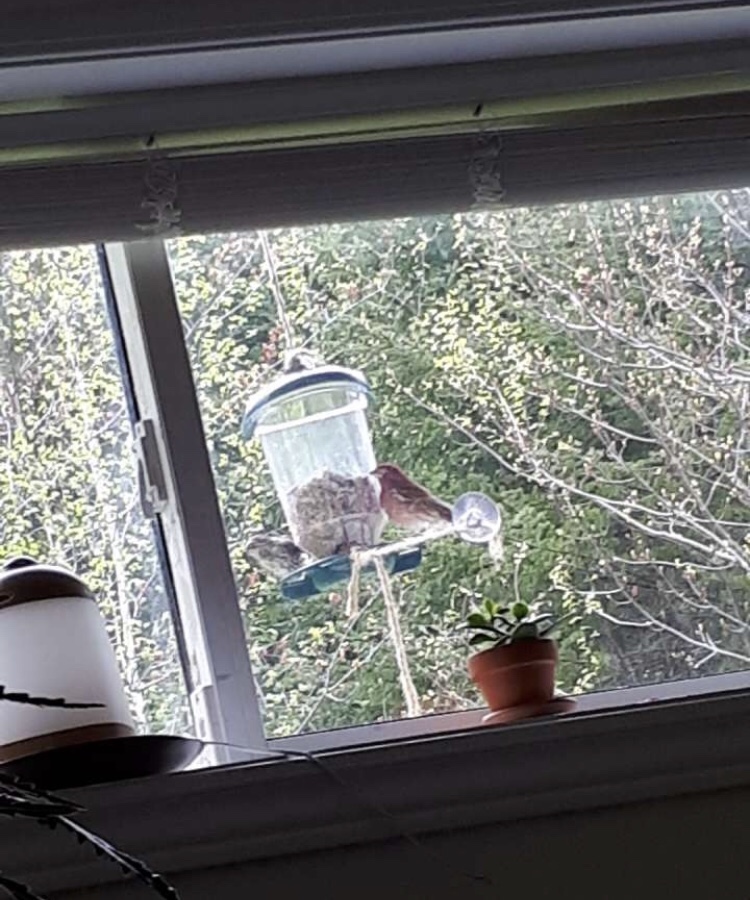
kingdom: Animalia
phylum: Chordata
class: Aves
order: Passeriformes
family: Fringillidae
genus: Haemorhous
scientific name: Haemorhous purpureus
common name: Purple finch
